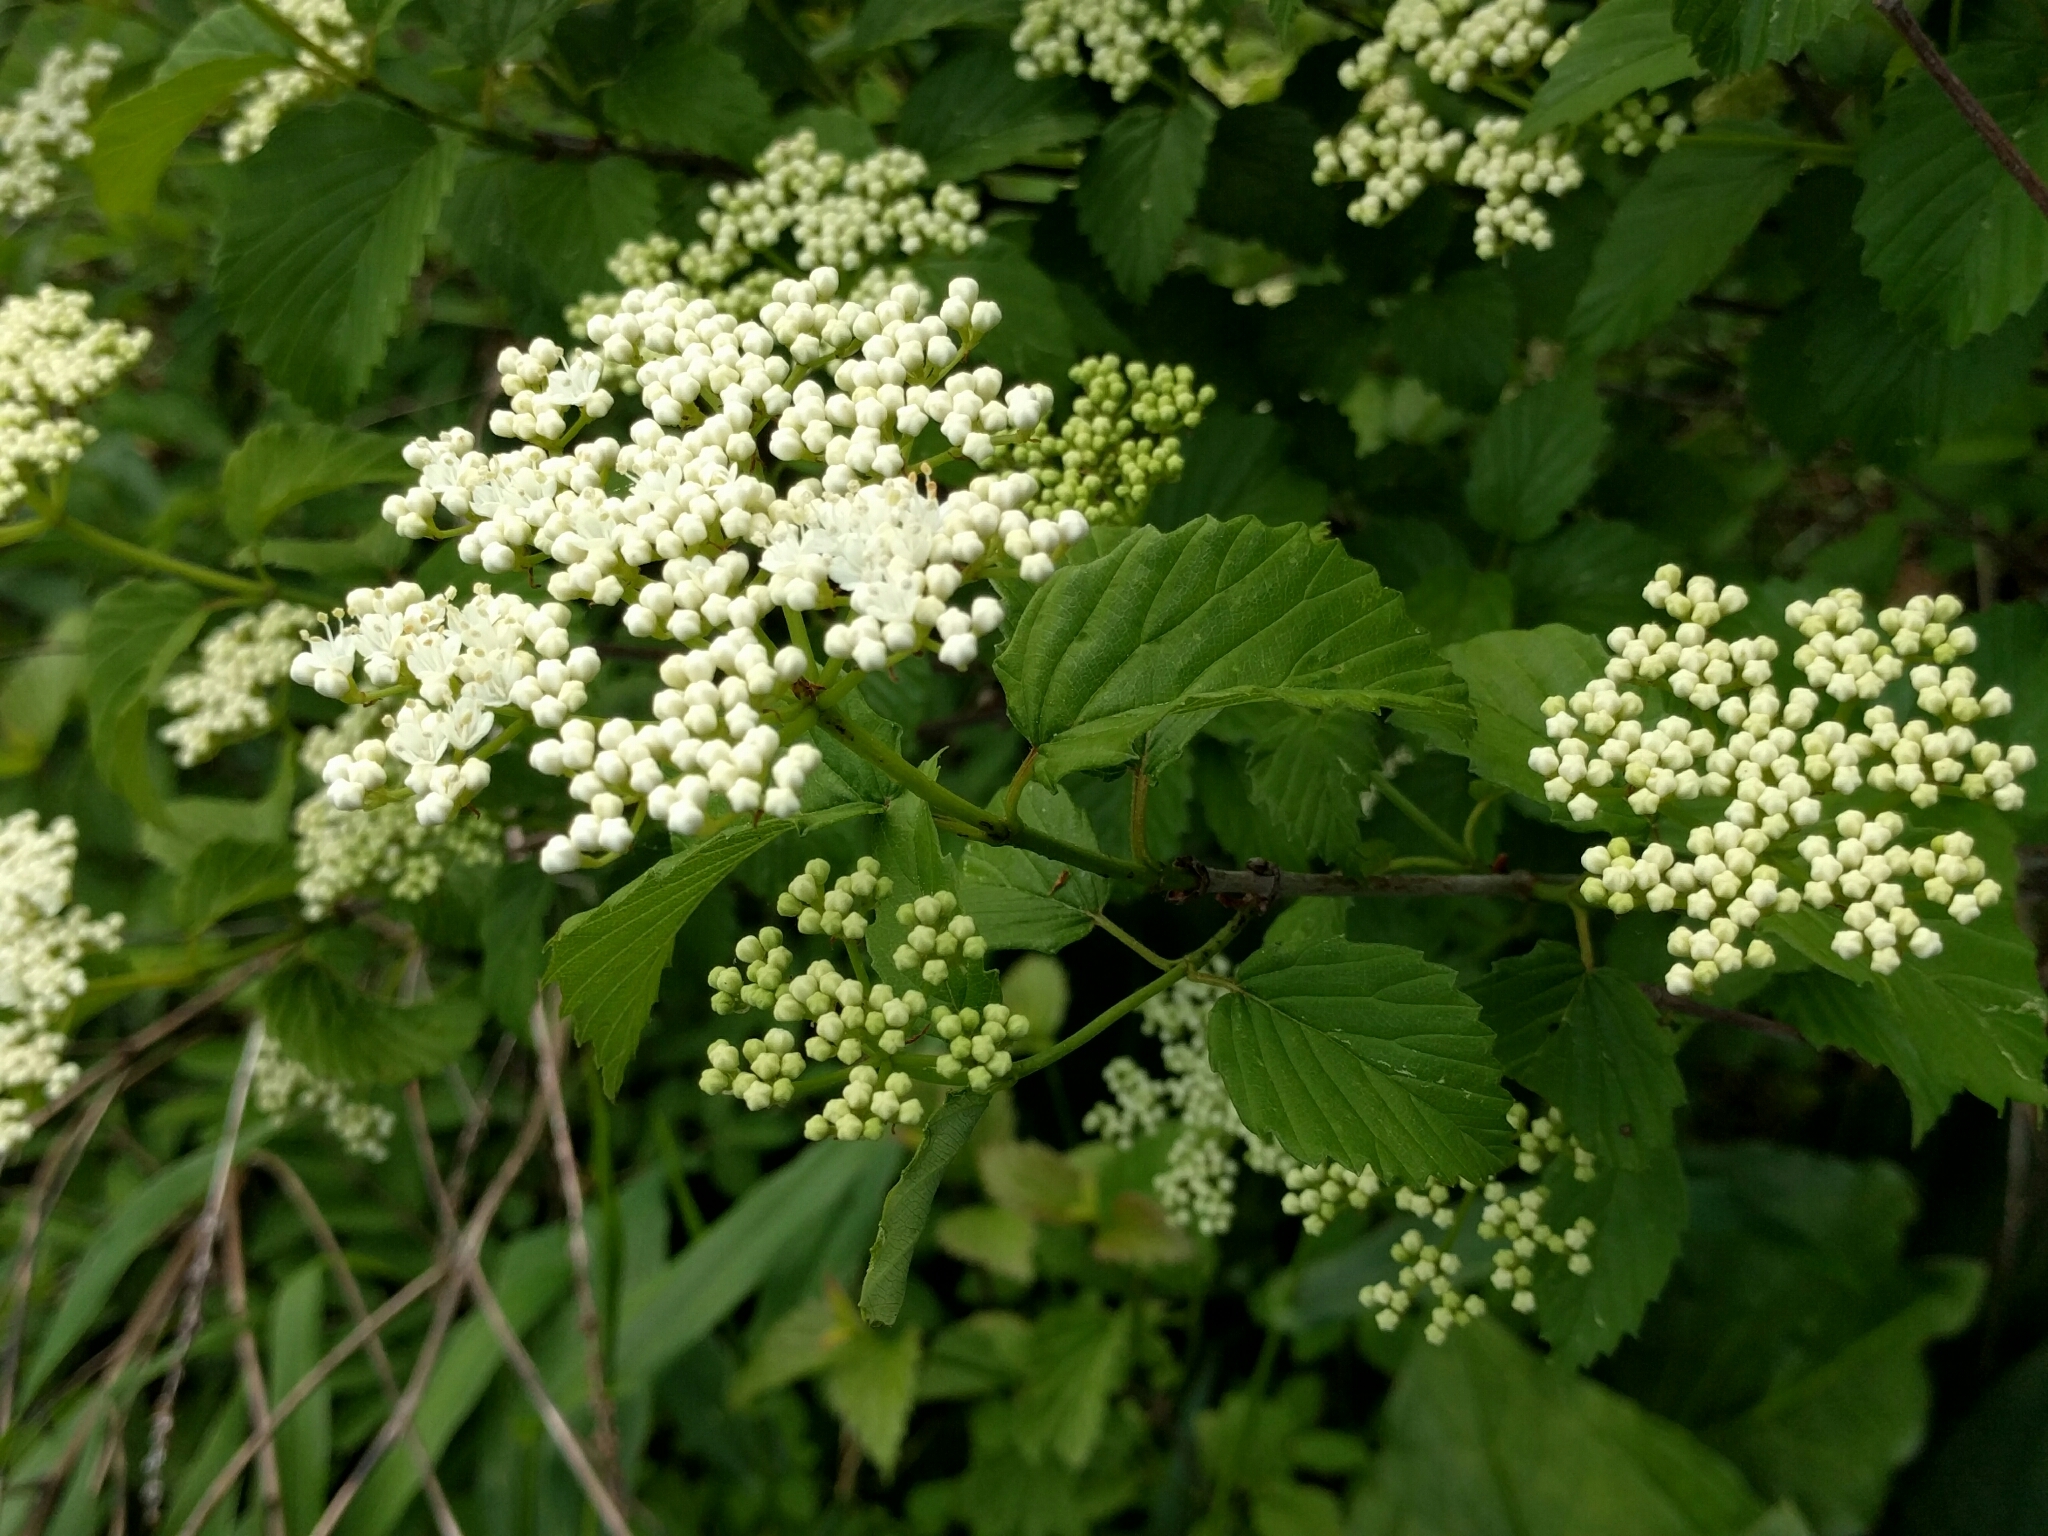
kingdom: Plantae
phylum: Tracheophyta
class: Magnoliopsida
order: Dipsacales
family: Viburnaceae
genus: Viburnum
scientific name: Viburnum dentatum
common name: Arrow-wood
